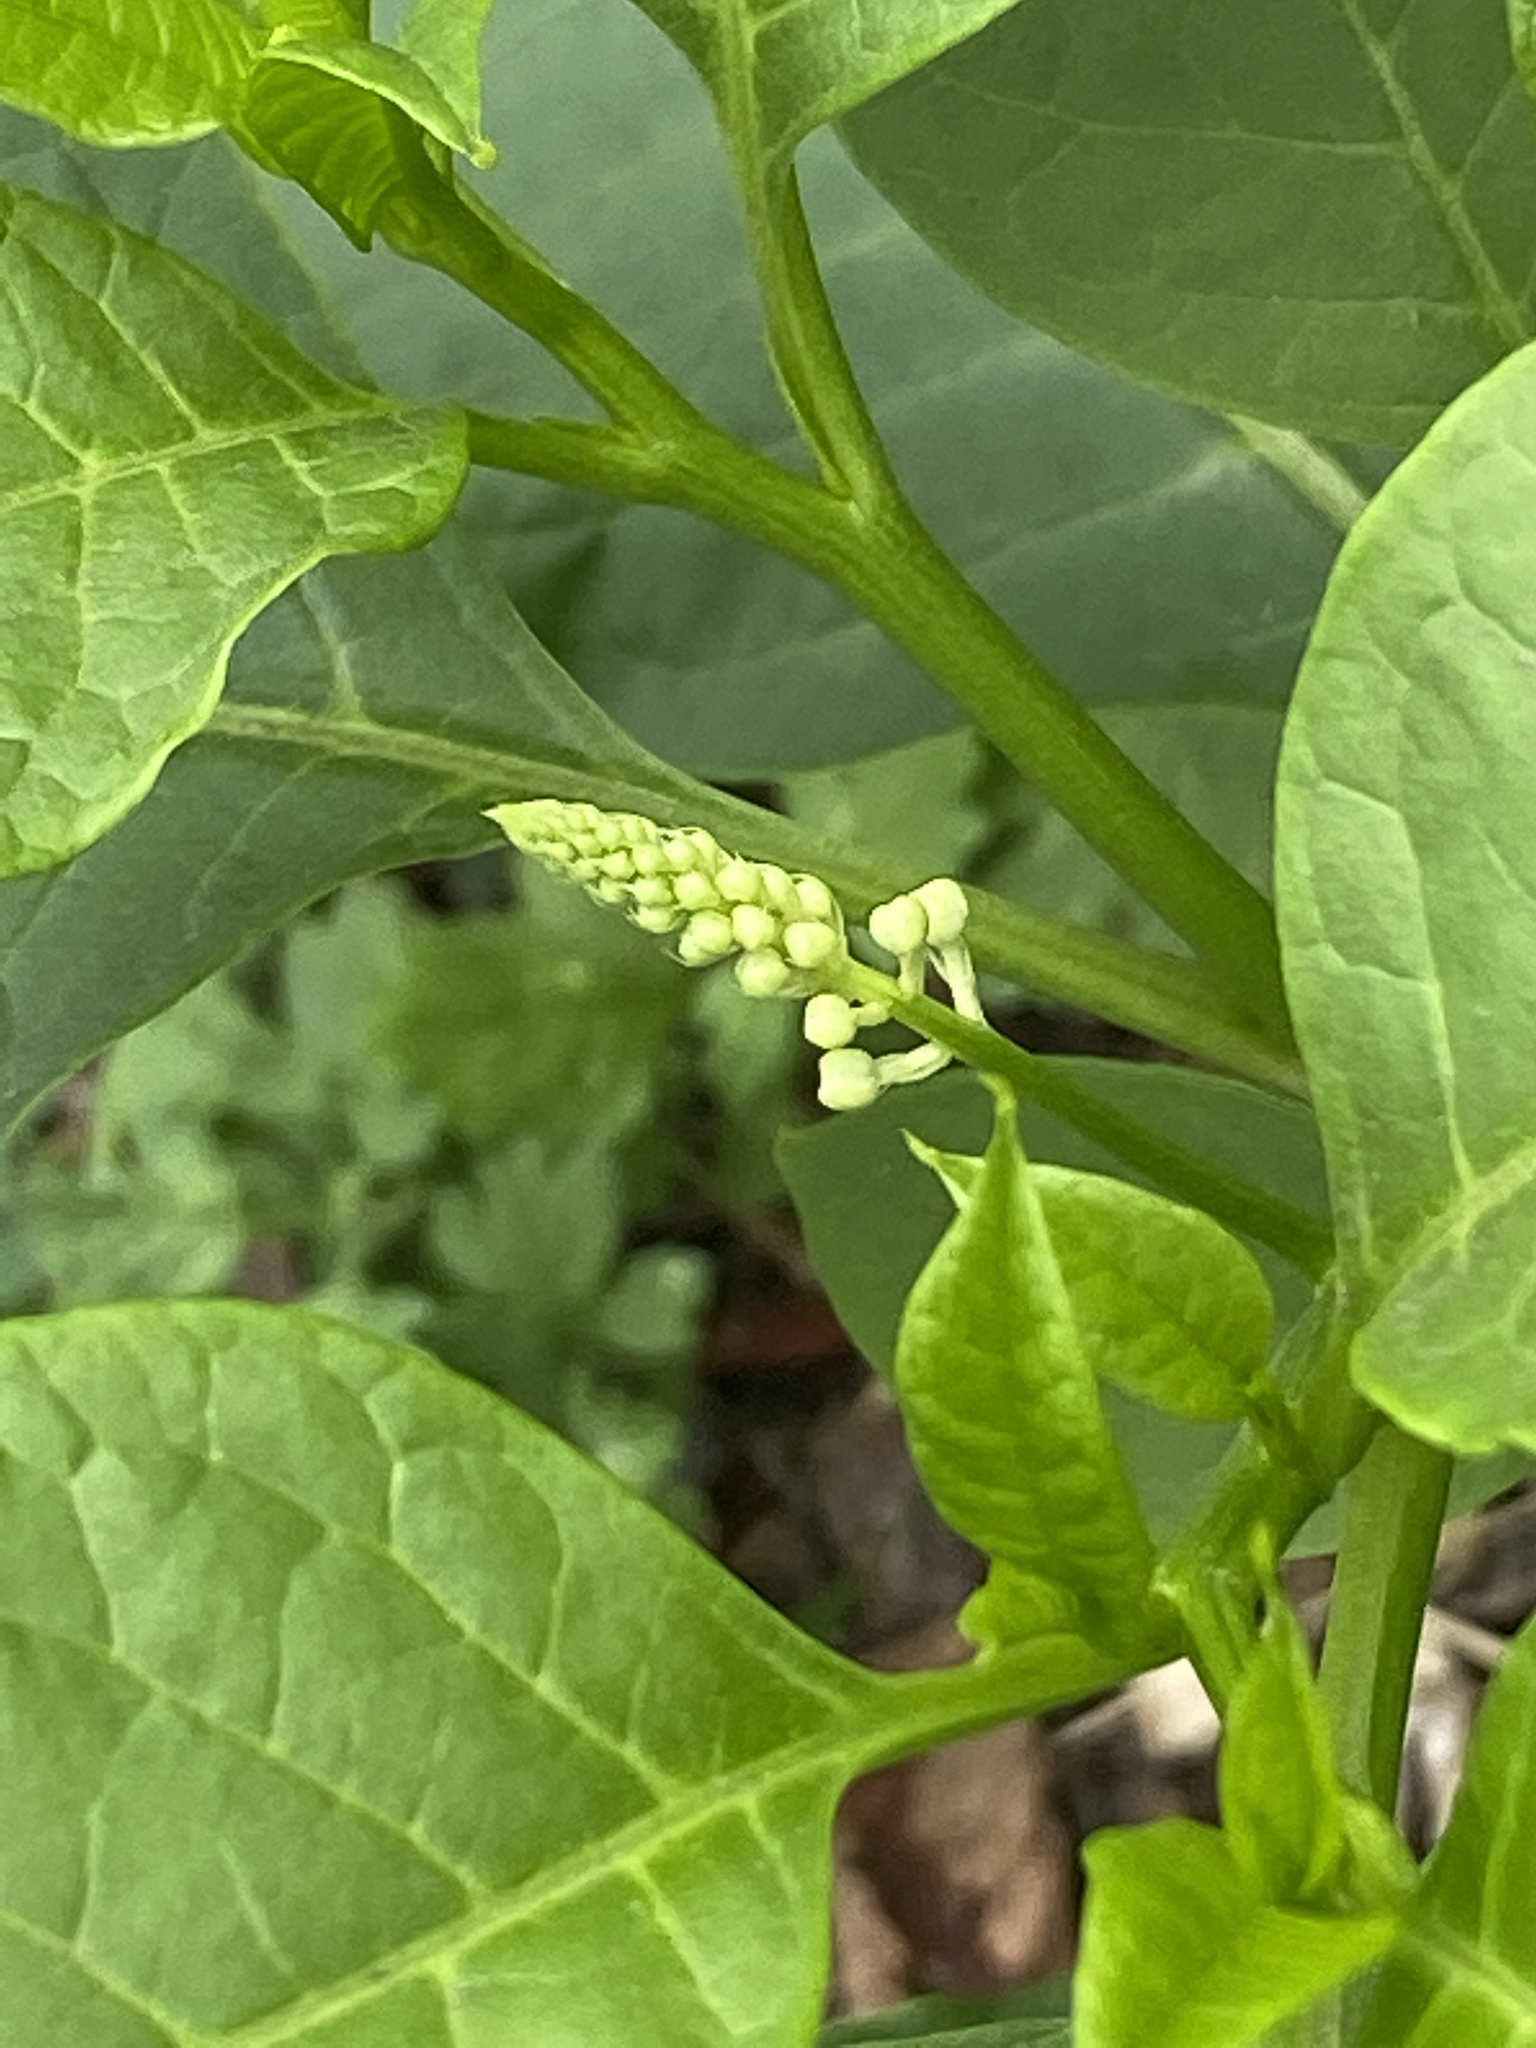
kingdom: Plantae
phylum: Tracheophyta
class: Magnoliopsida
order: Caryophyllales
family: Phytolaccaceae
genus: Phytolacca
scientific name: Phytolacca americana
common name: American pokeweed
